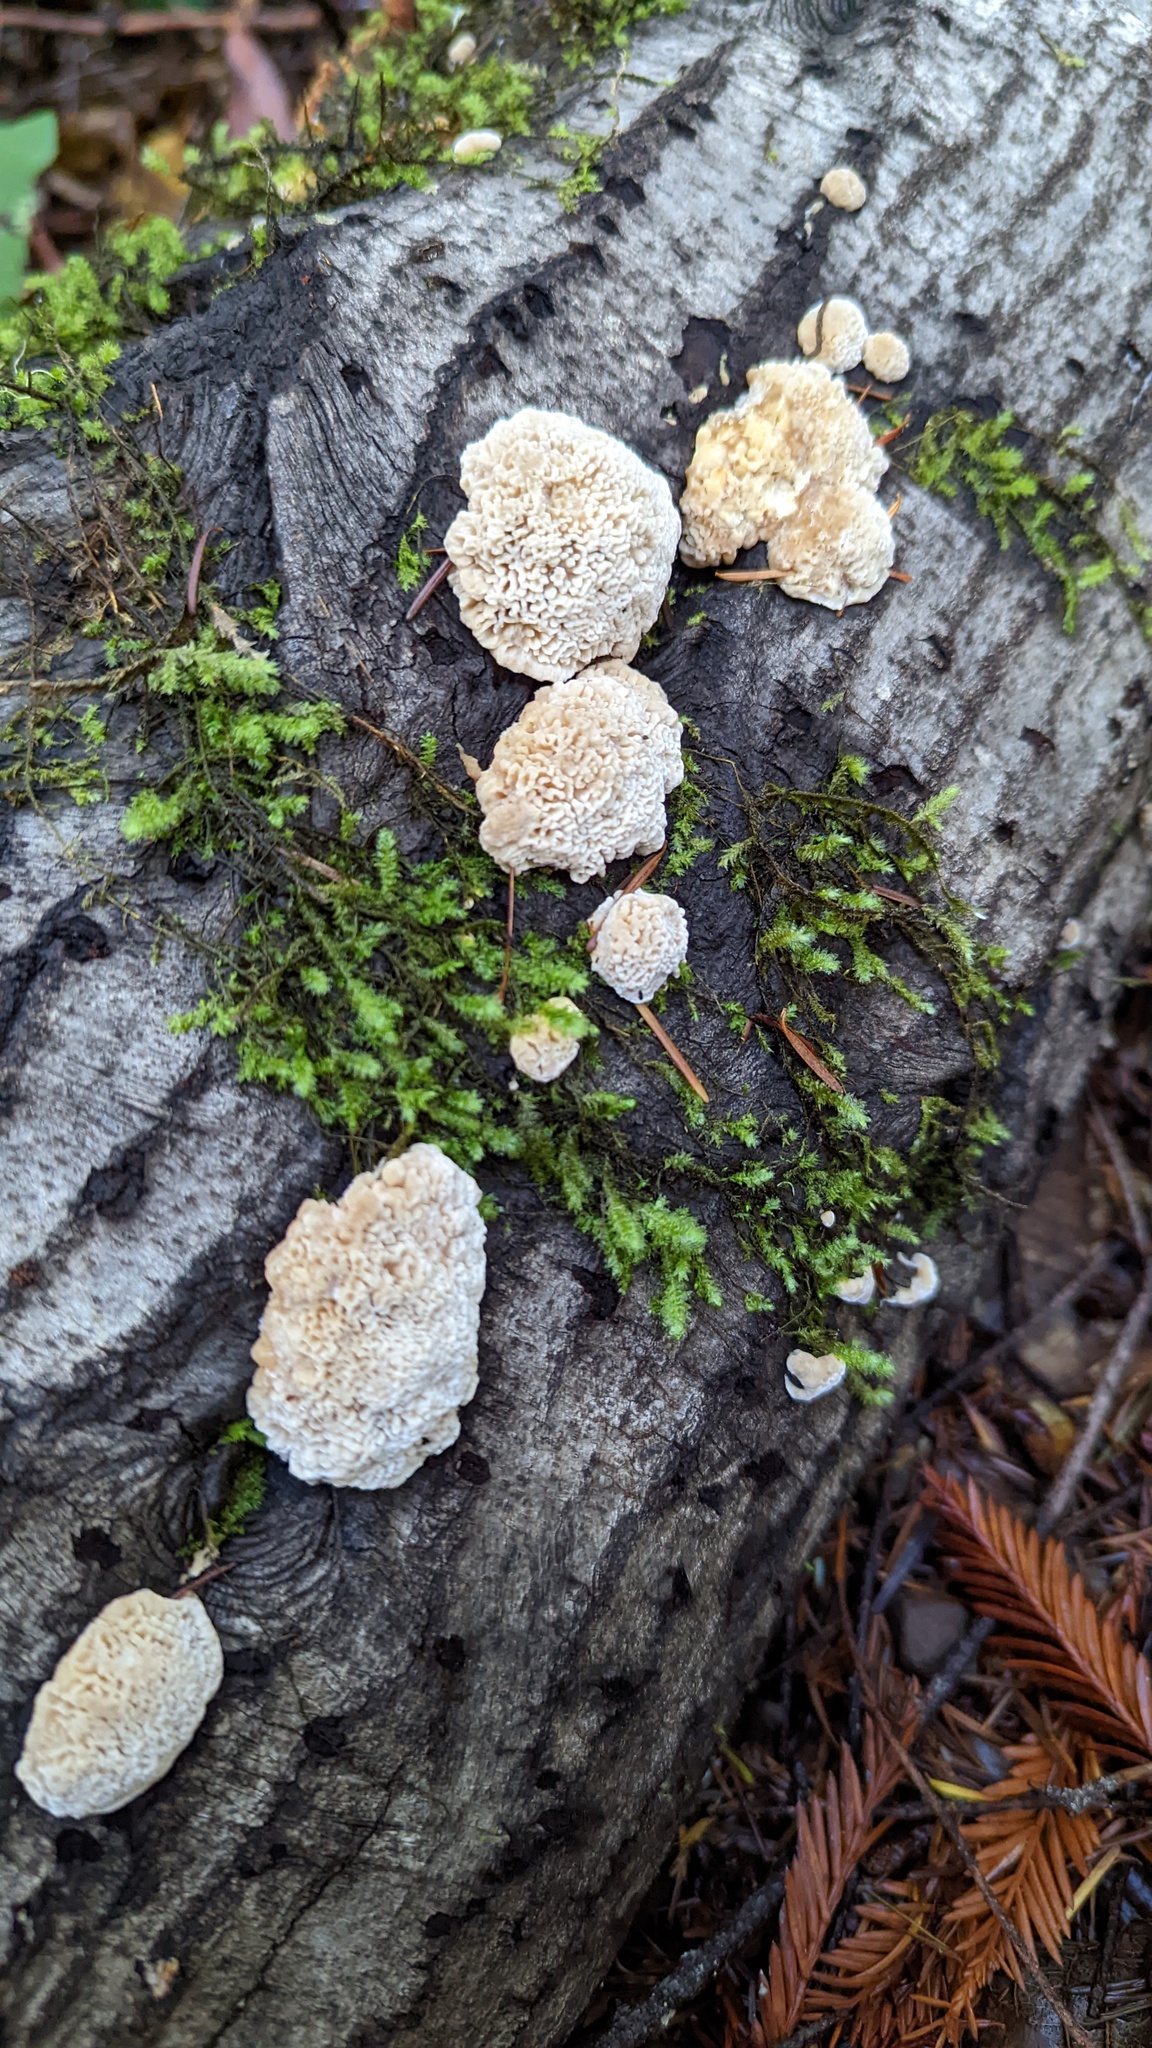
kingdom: Fungi
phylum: Basidiomycota
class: Agaricomycetes
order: Polyporales
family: Polyporaceae
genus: Lenzites
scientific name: Lenzites betulinus
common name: Birch mazegill
